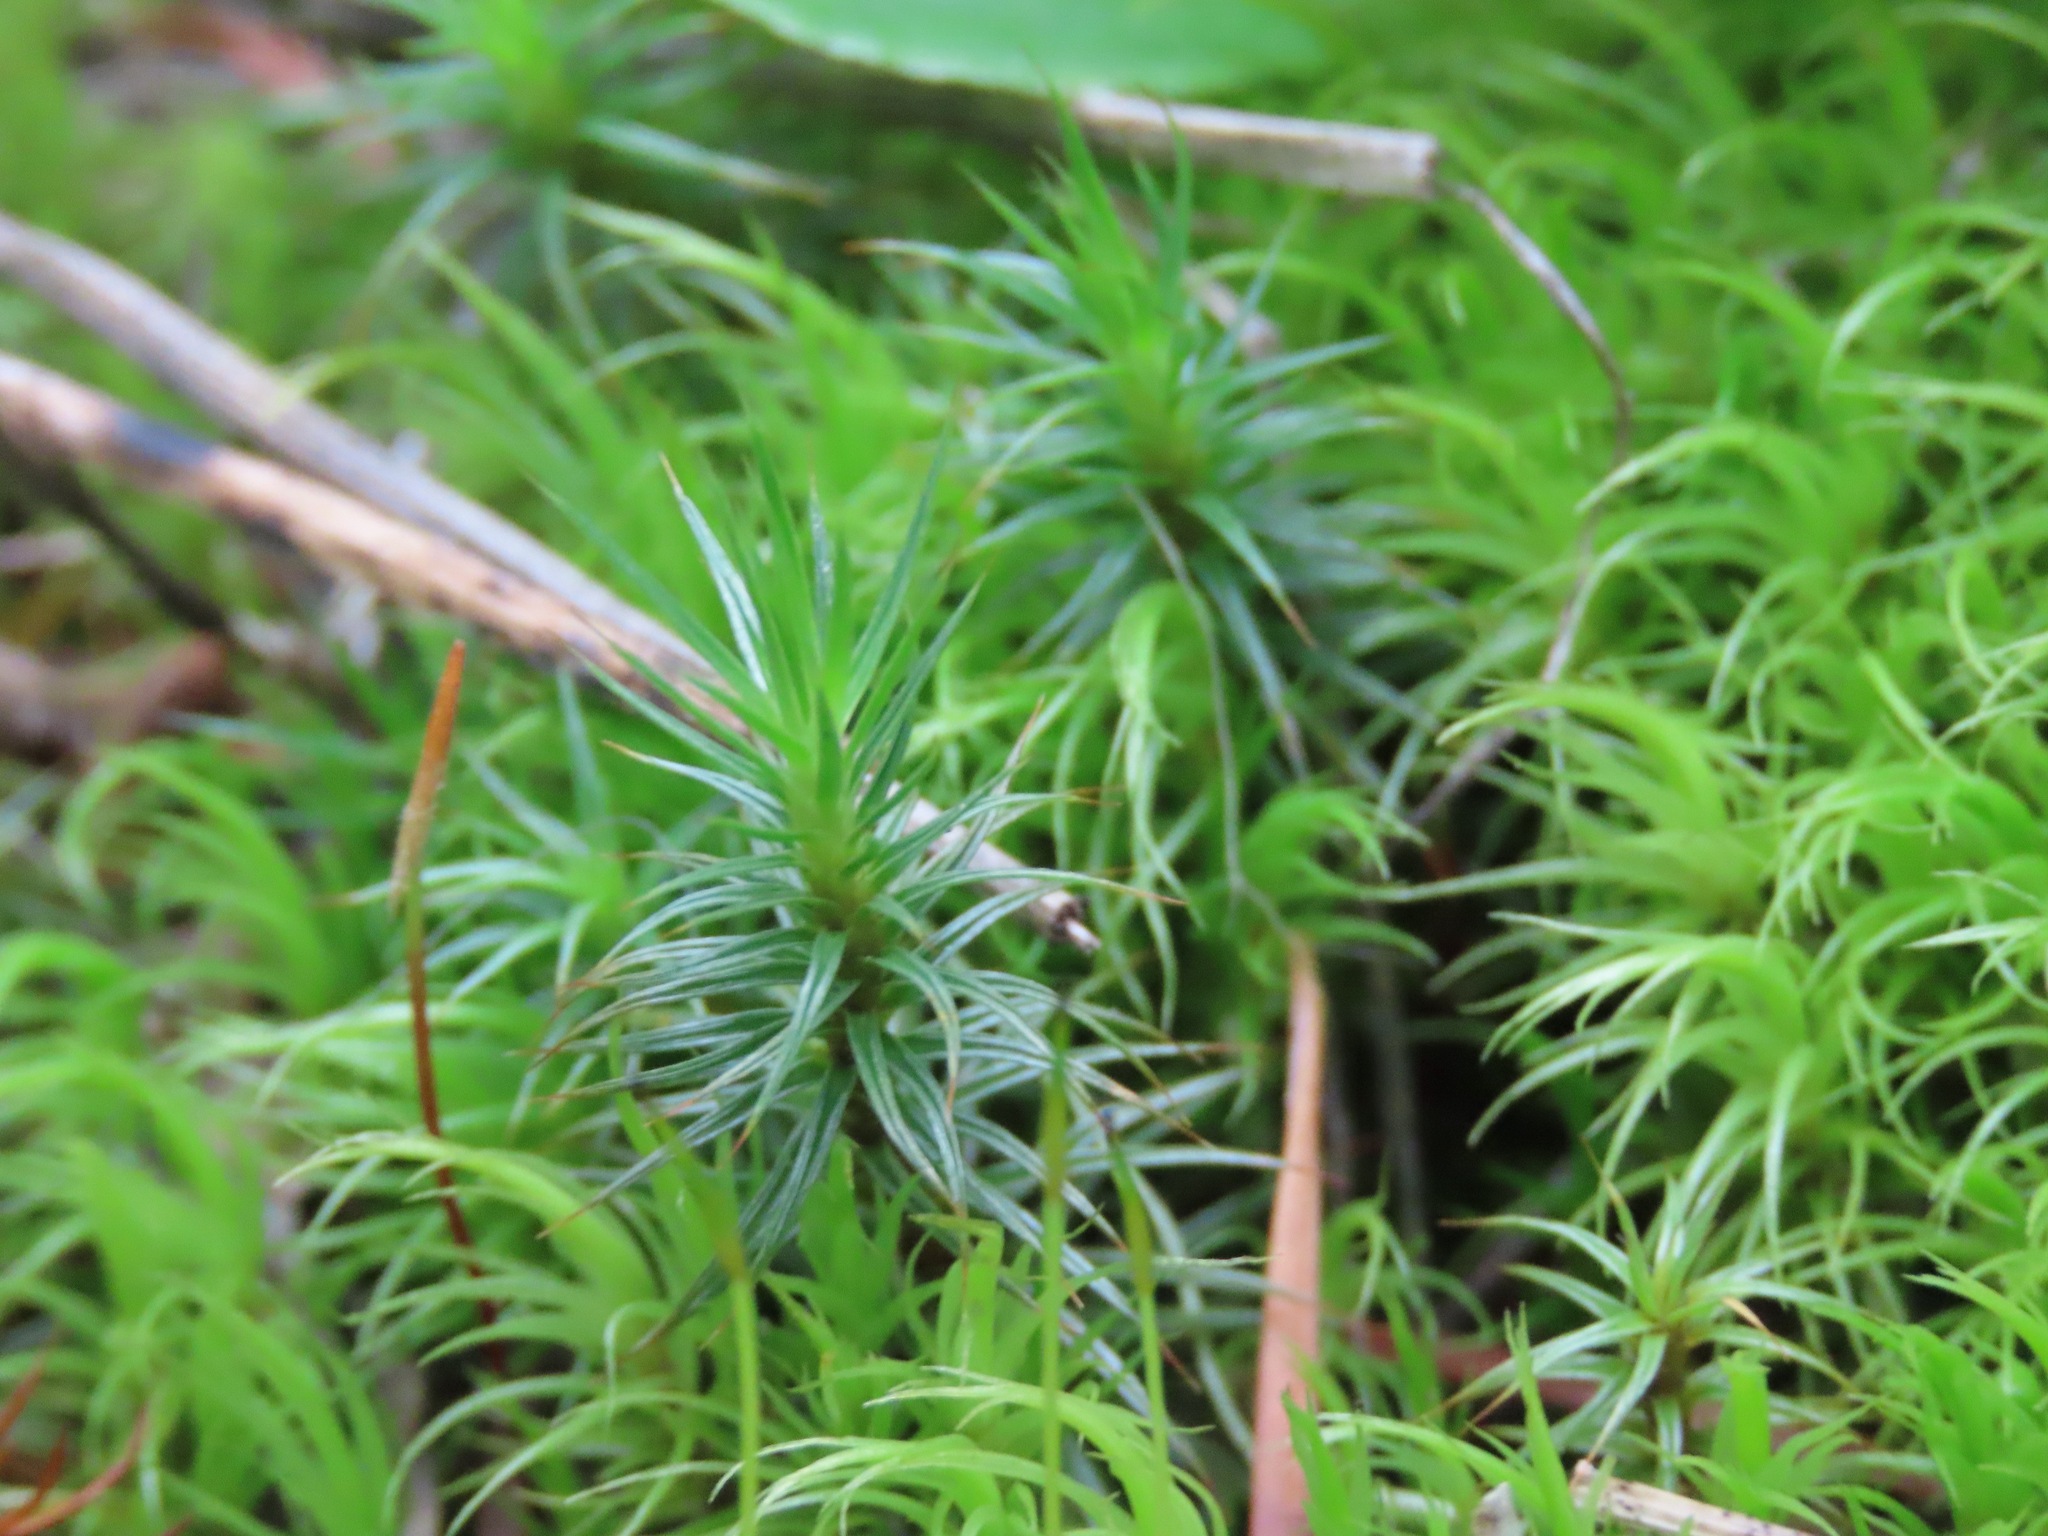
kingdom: Plantae
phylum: Bryophyta
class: Polytrichopsida
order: Polytrichales
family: Polytrichaceae
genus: Polytrichum
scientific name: Polytrichum juniperinum
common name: Juniper haircap moss
